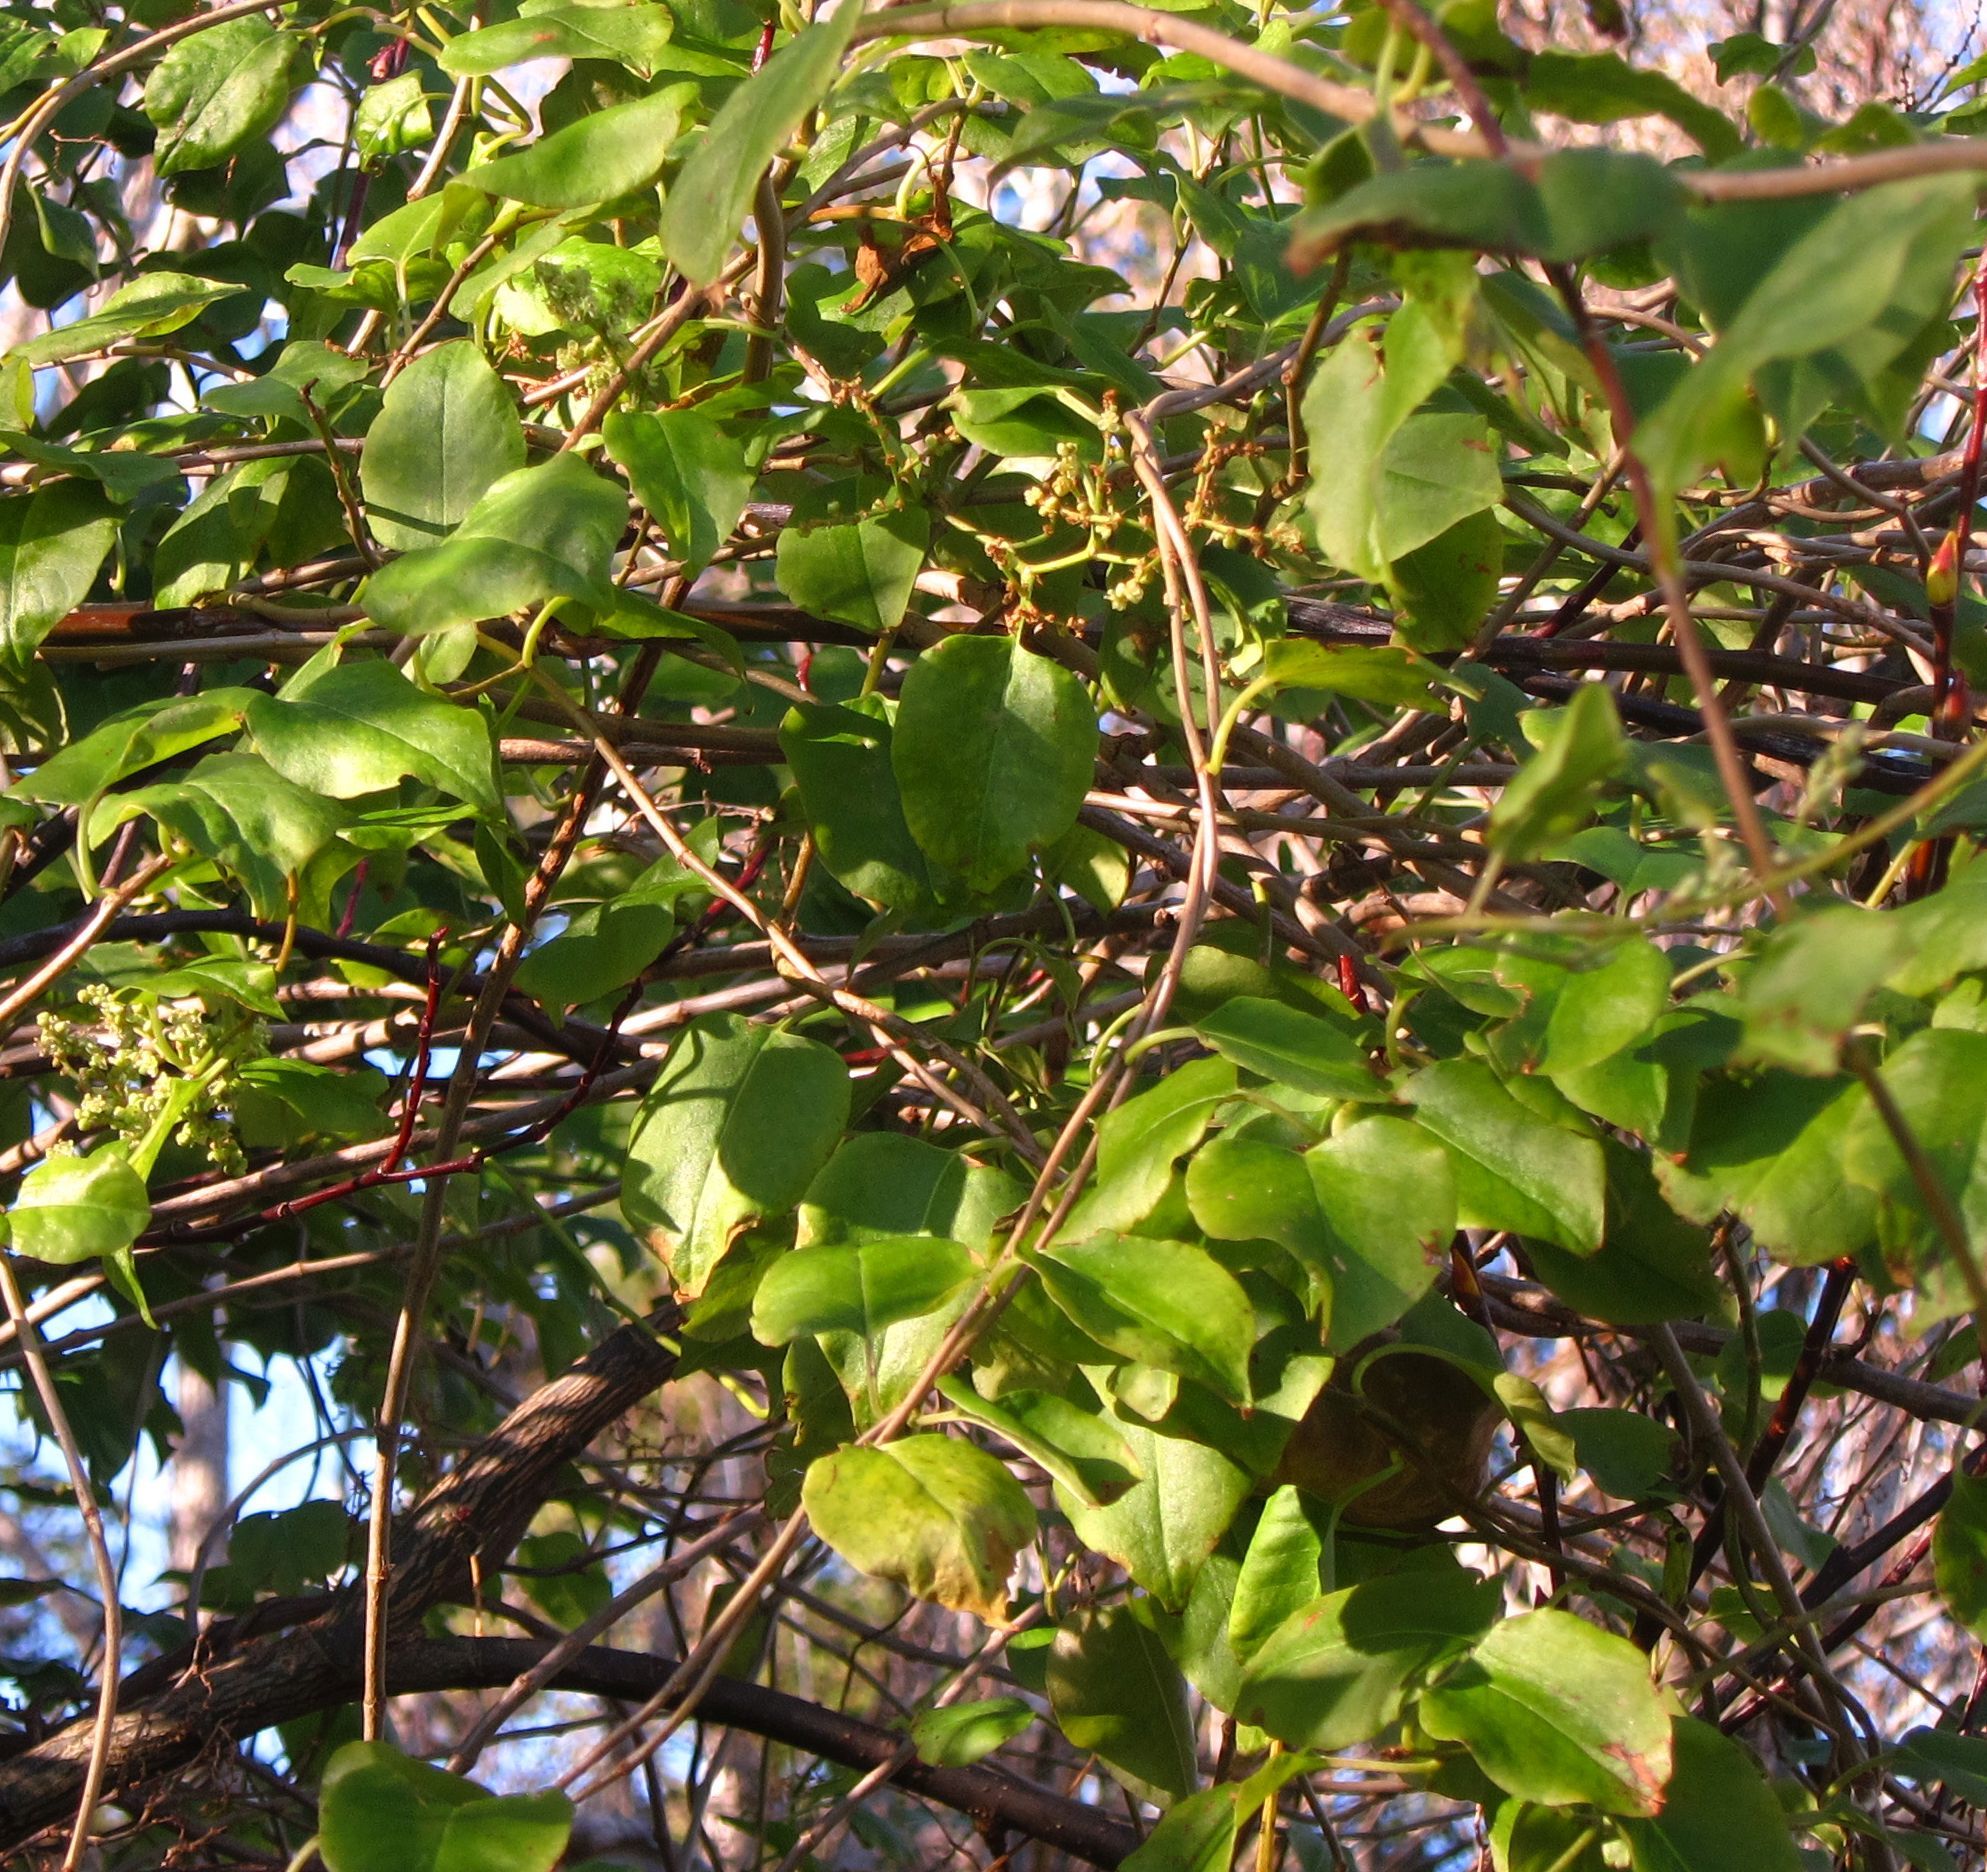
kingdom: Plantae
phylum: Tracheophyta
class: Magnoliopsida
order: Caryophyllales
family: Polygonaceae
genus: Muehlenbeckia
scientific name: Muehlenbeckia australis
